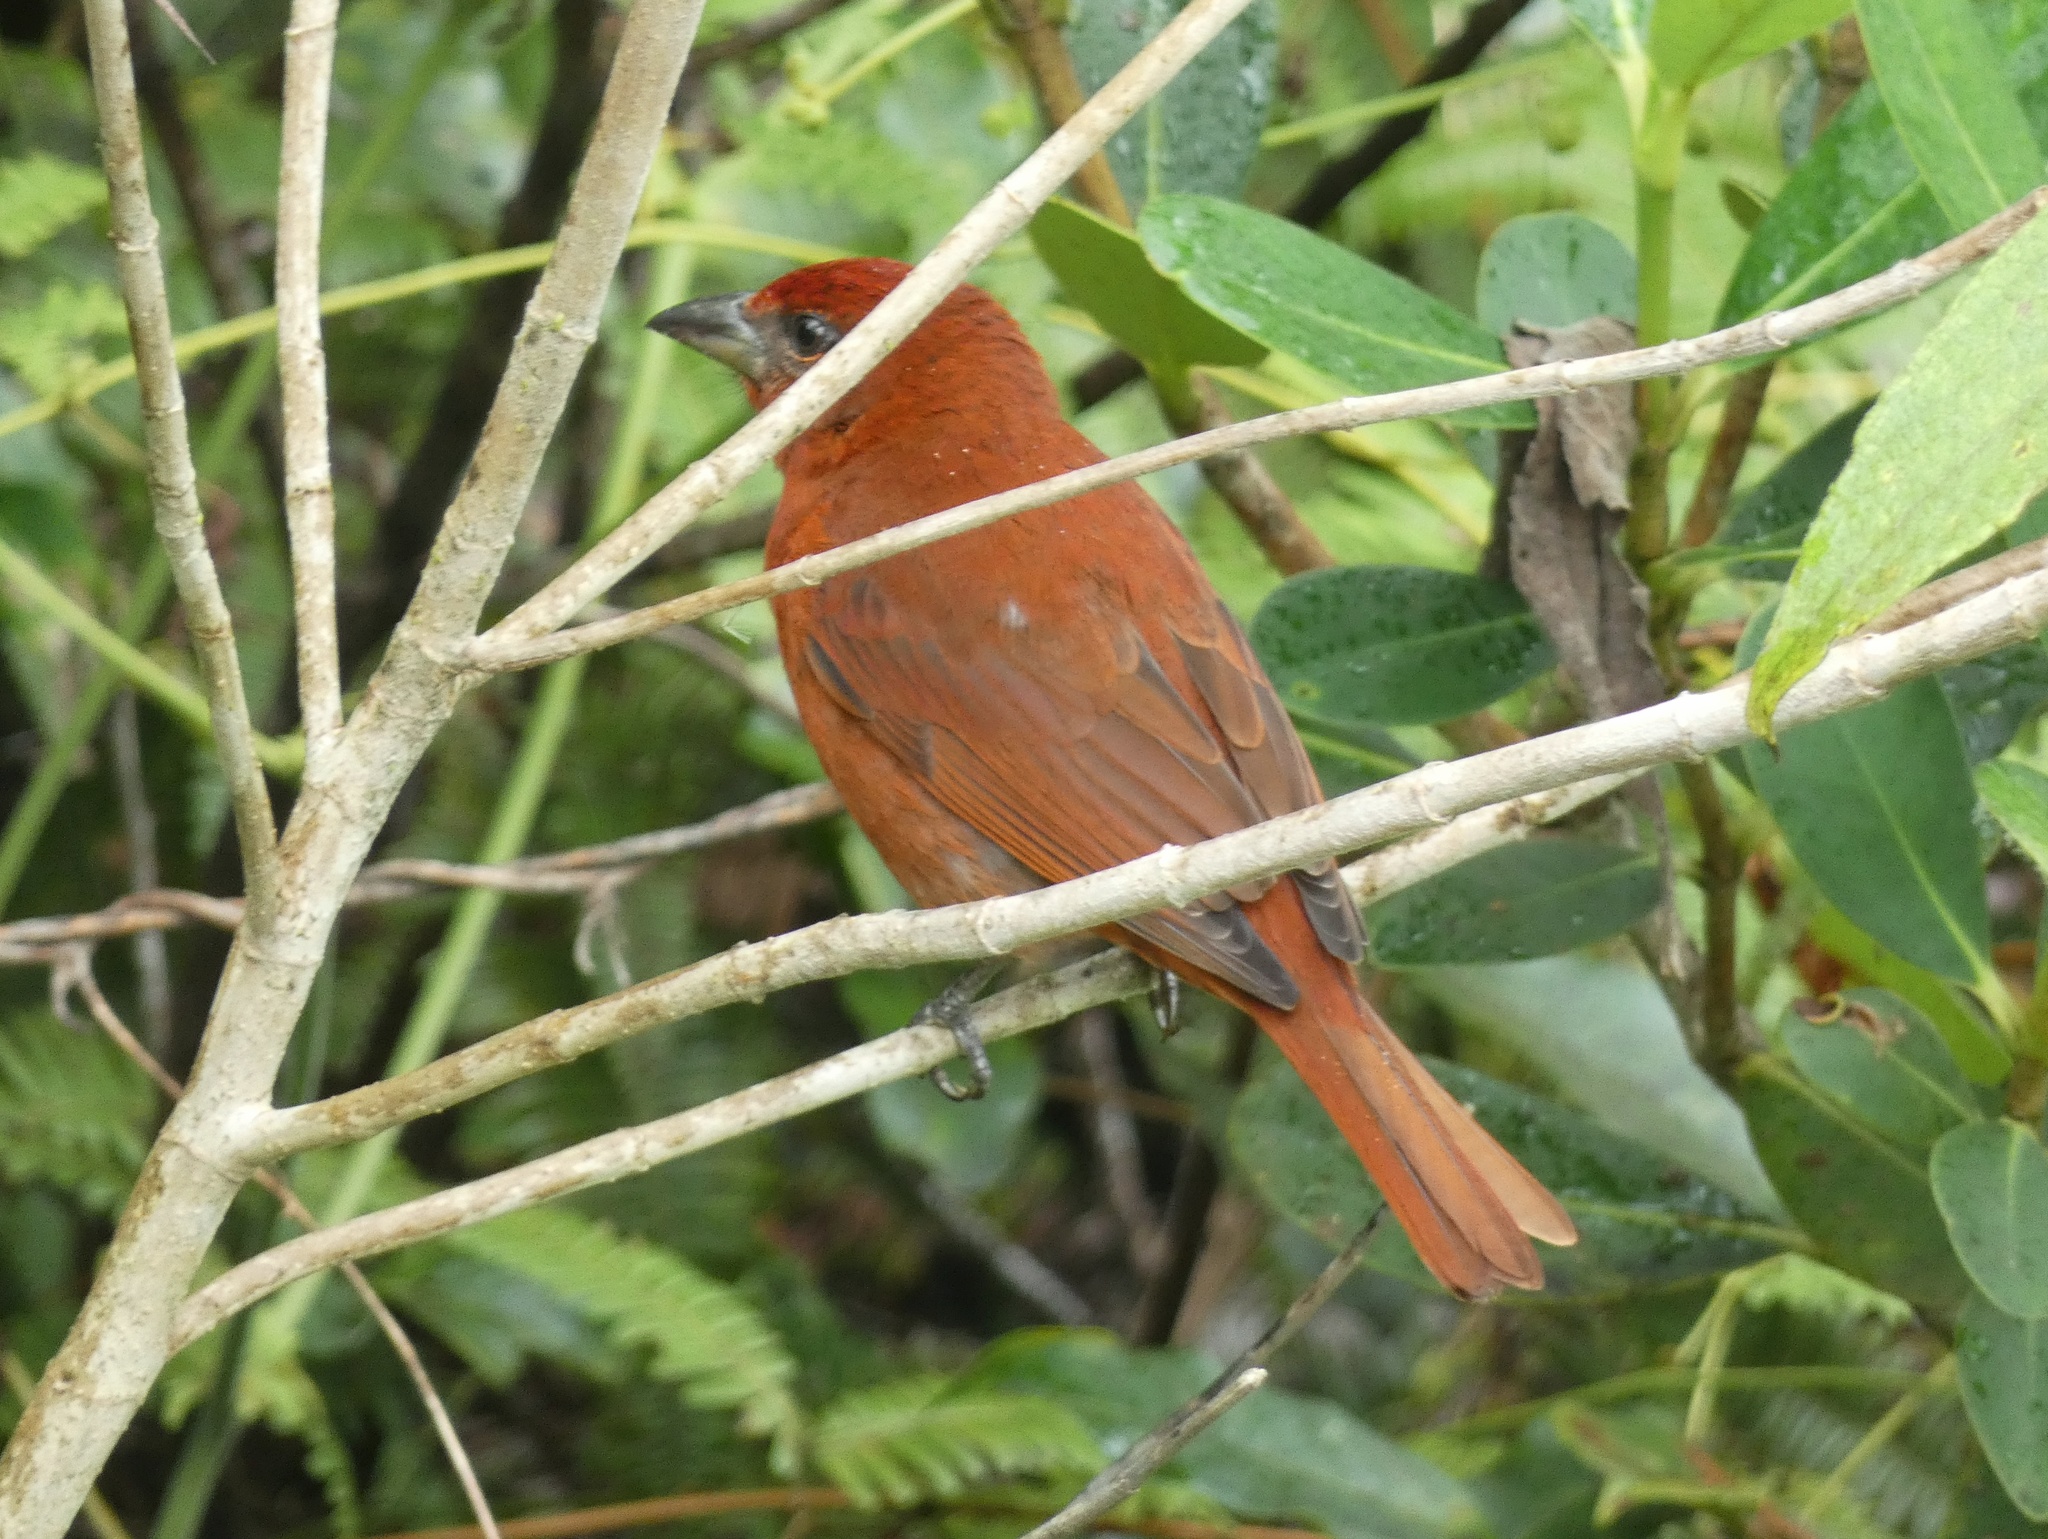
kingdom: Animalia
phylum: Chordata
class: Aves
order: Passeriformes
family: Cardinalidae
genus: Piranga
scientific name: Piranga flava
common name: Red tanager
